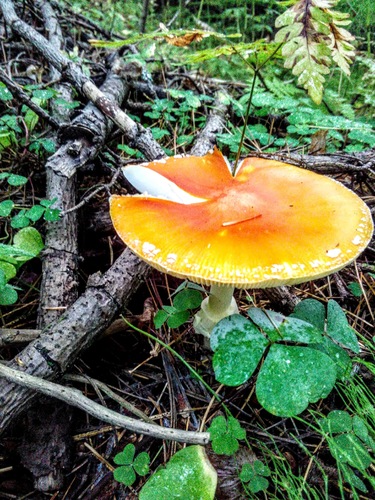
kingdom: Fungi
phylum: Basidiomycota
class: Agaricomycetes
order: Agaricales
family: Amanitaceae
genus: Amanita
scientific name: Amanita muscaria
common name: Fly agaric
